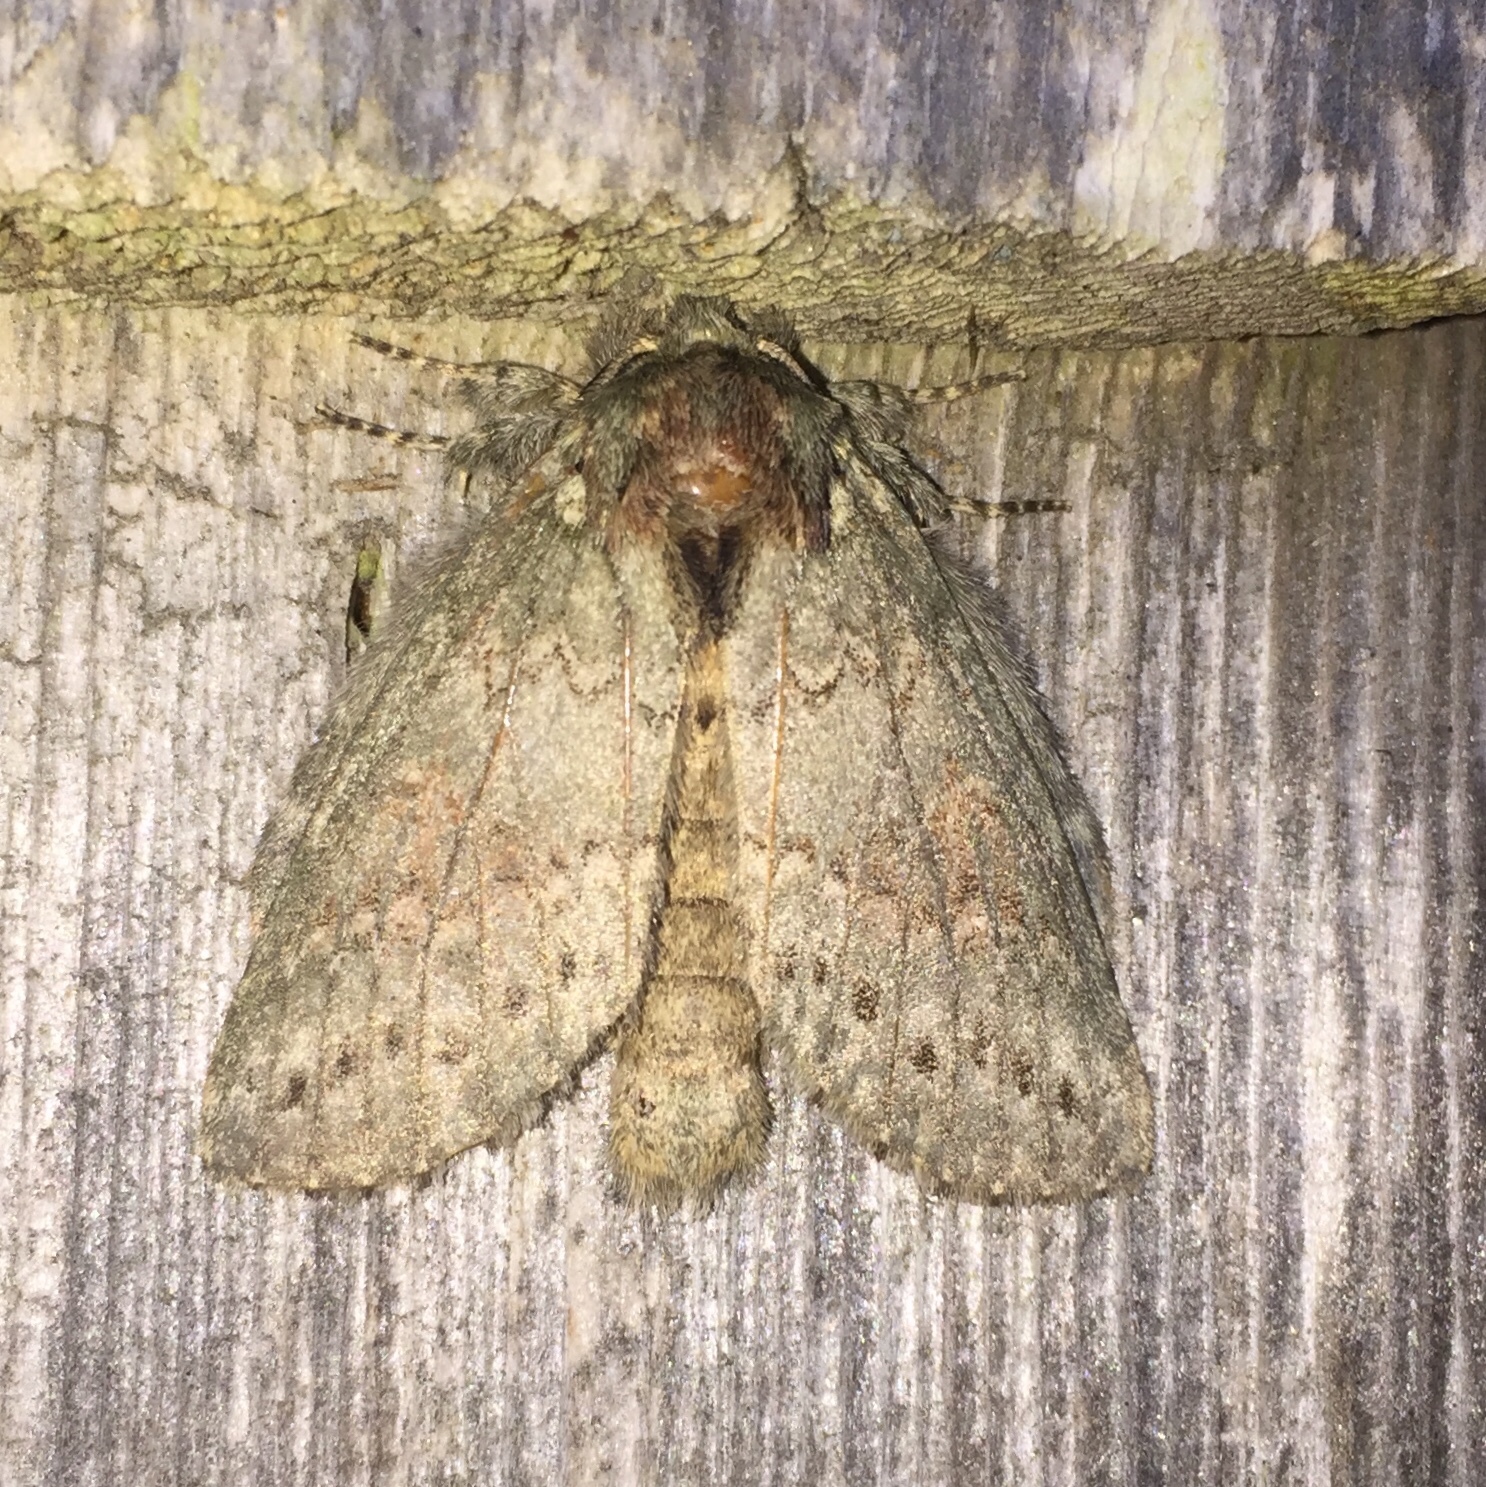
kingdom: Animalia
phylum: Arthropoda
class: Insecta
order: Lepidoptera
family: Notodontidae
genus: Disphragis
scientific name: Disphragis Cecrita biundata
